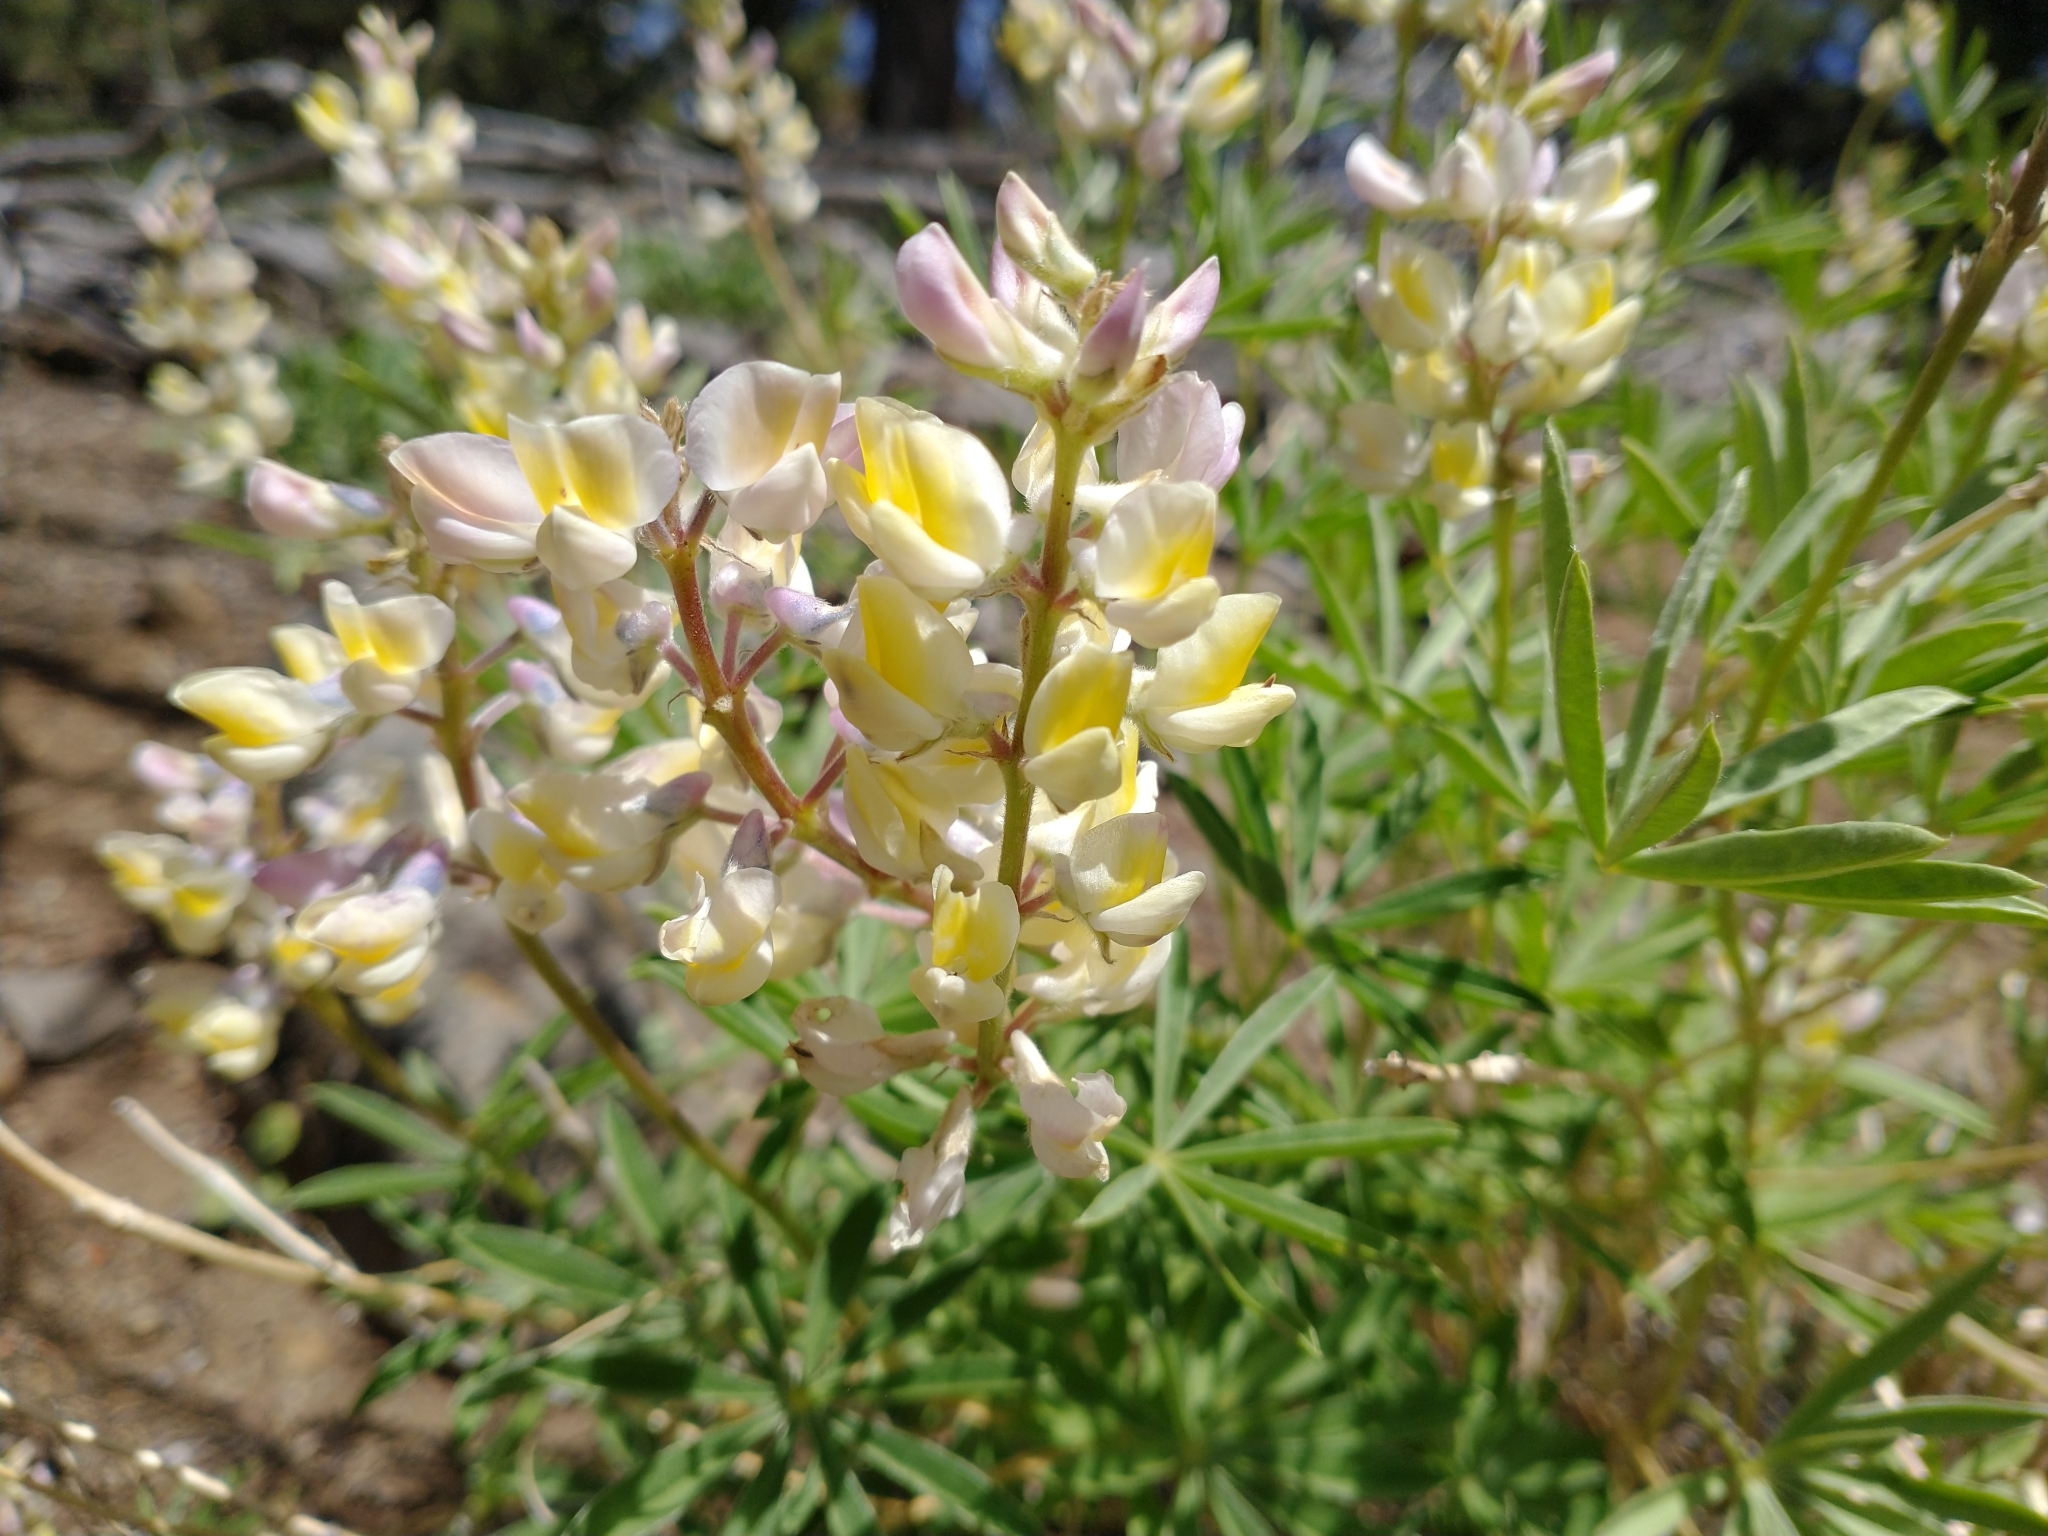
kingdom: Plantae
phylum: Tracheophyta
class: Magnoliopsida
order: Fabales
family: Fabaceae
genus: Lupinus
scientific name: Lupinus arbustus
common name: Montana lupine
